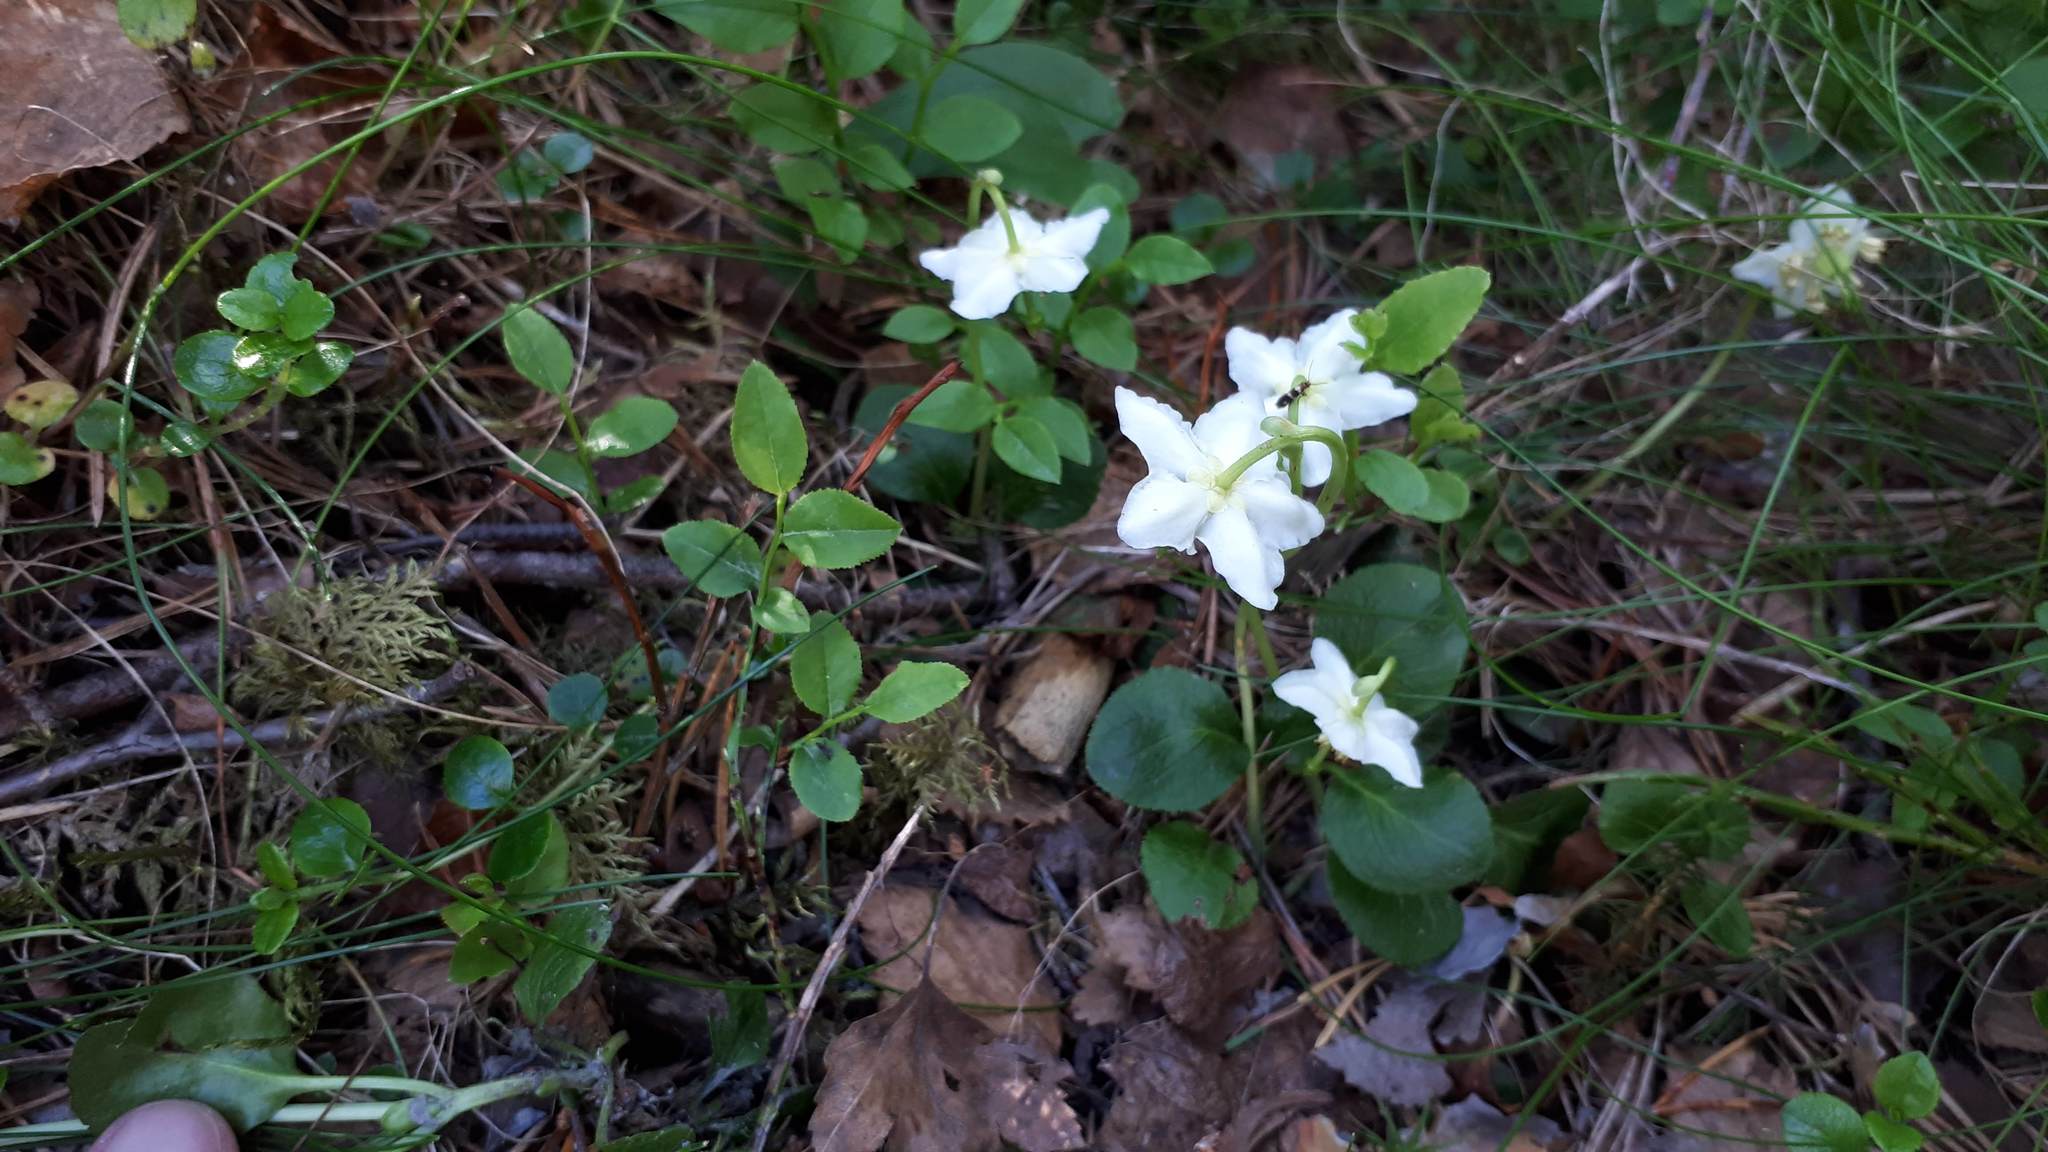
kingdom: Plantae
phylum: Tracheophyta
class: Magnoliopsida
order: Ericales
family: Ericaceae
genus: Moneses
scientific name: Moneses uniflora
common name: One-flowered wintergreen
